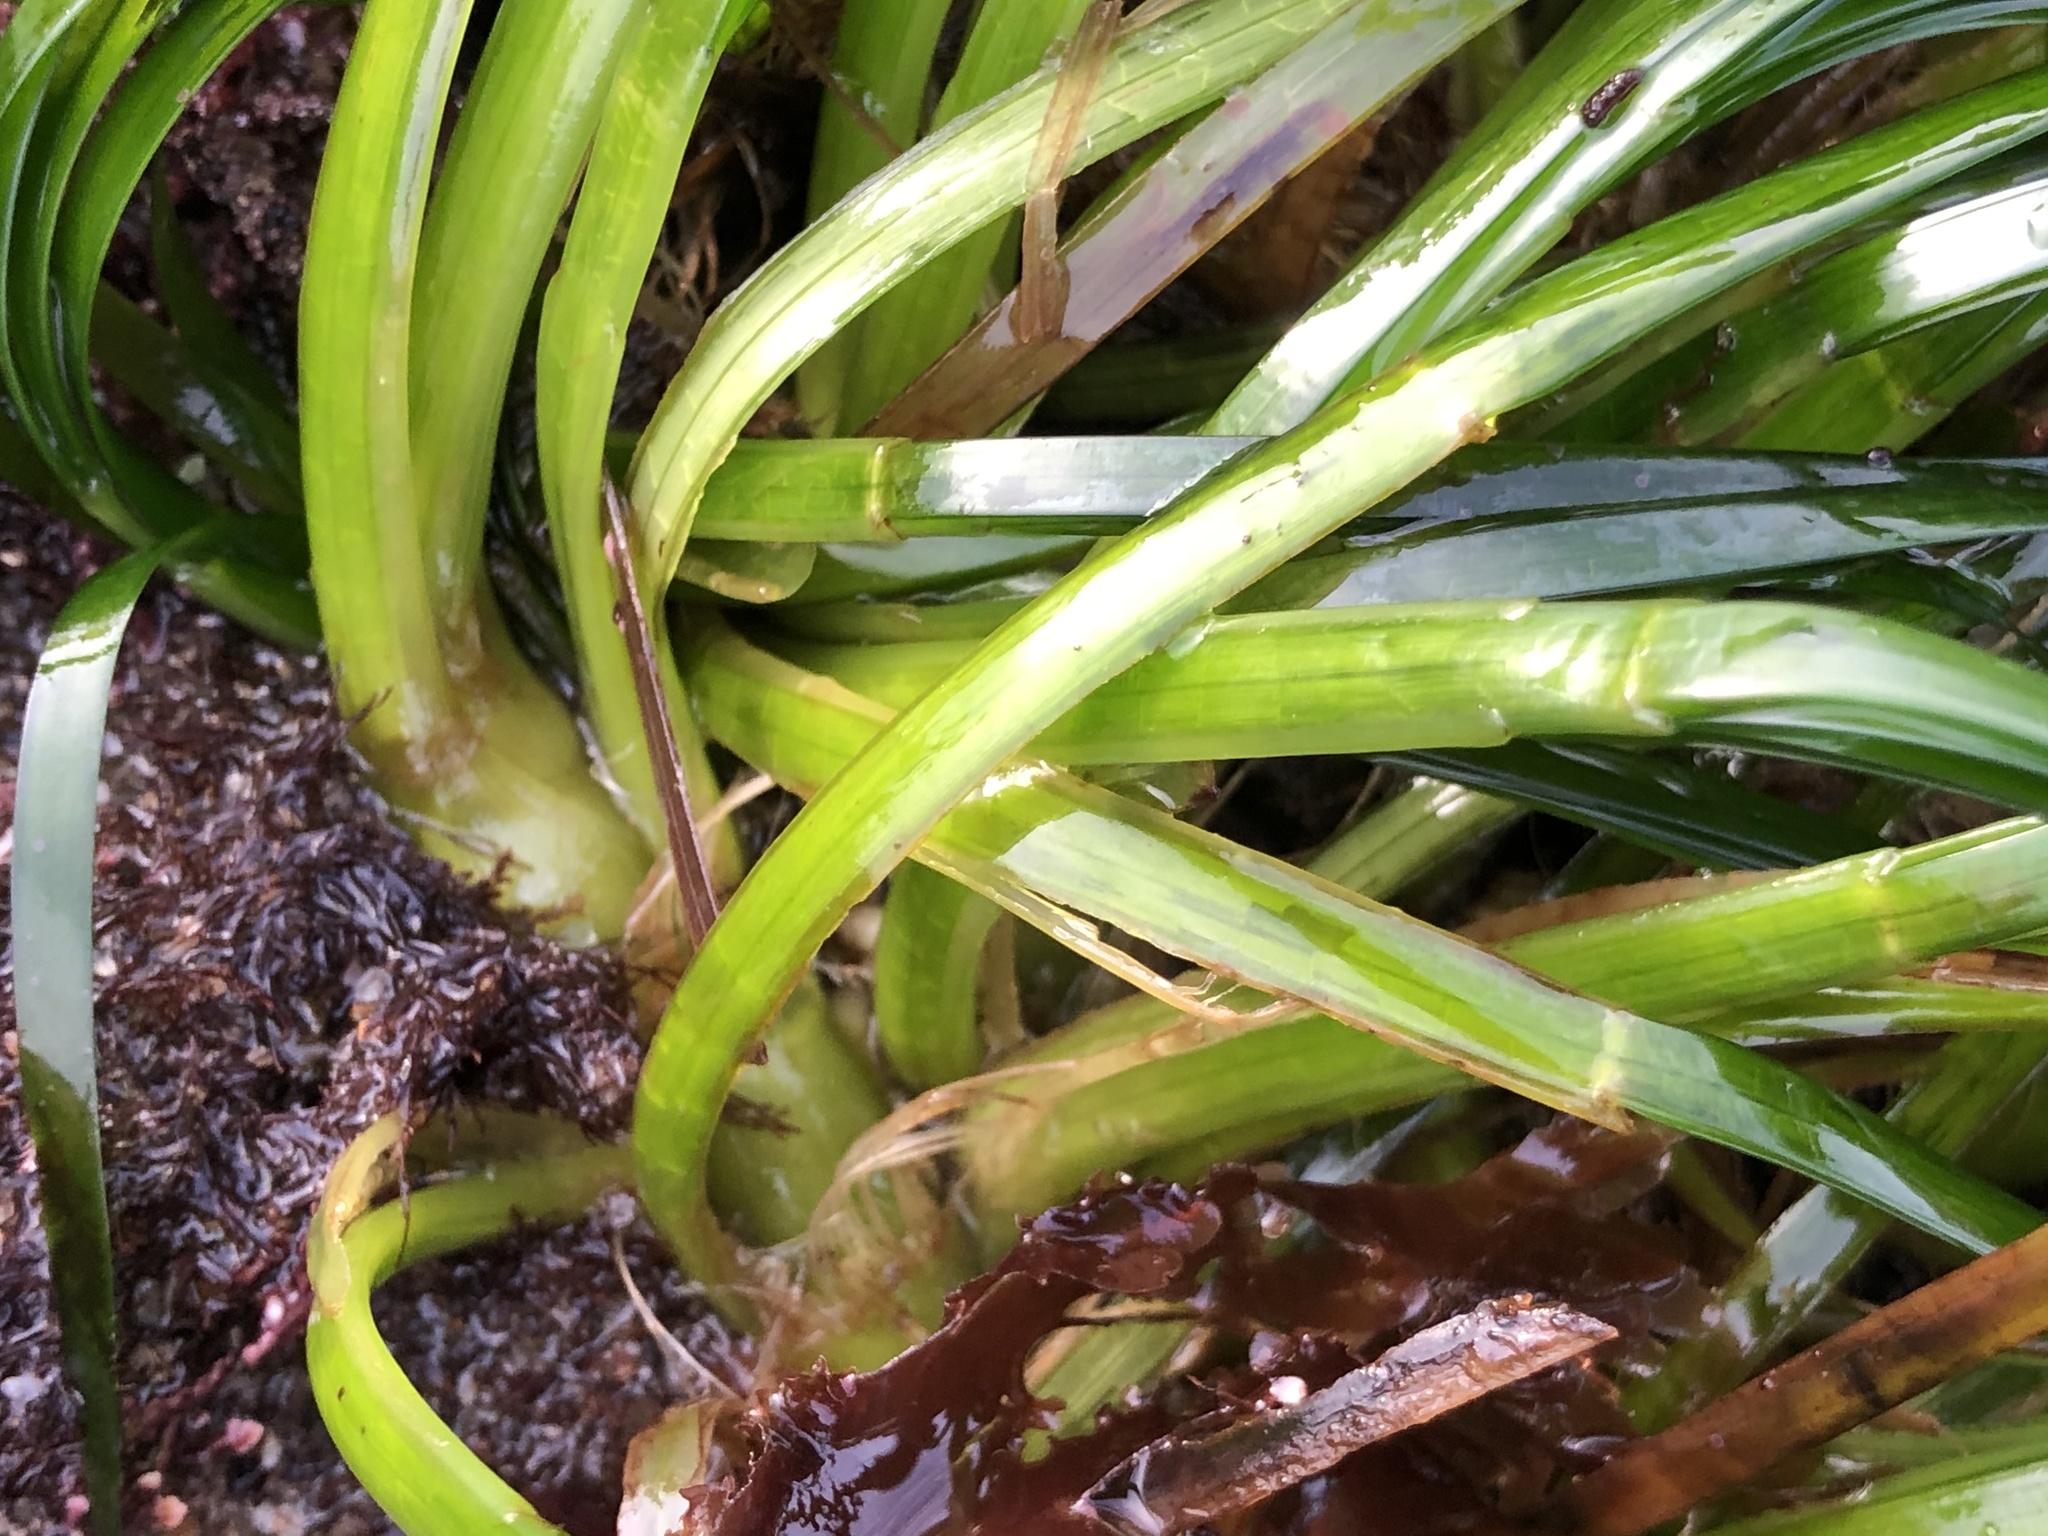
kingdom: Plantae
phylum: Tracheophyta
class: Liliopsida
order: Alismatales
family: Zosteraceae
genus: Phyllospadix
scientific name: Phyllospadix scouleri
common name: Species code: ps
